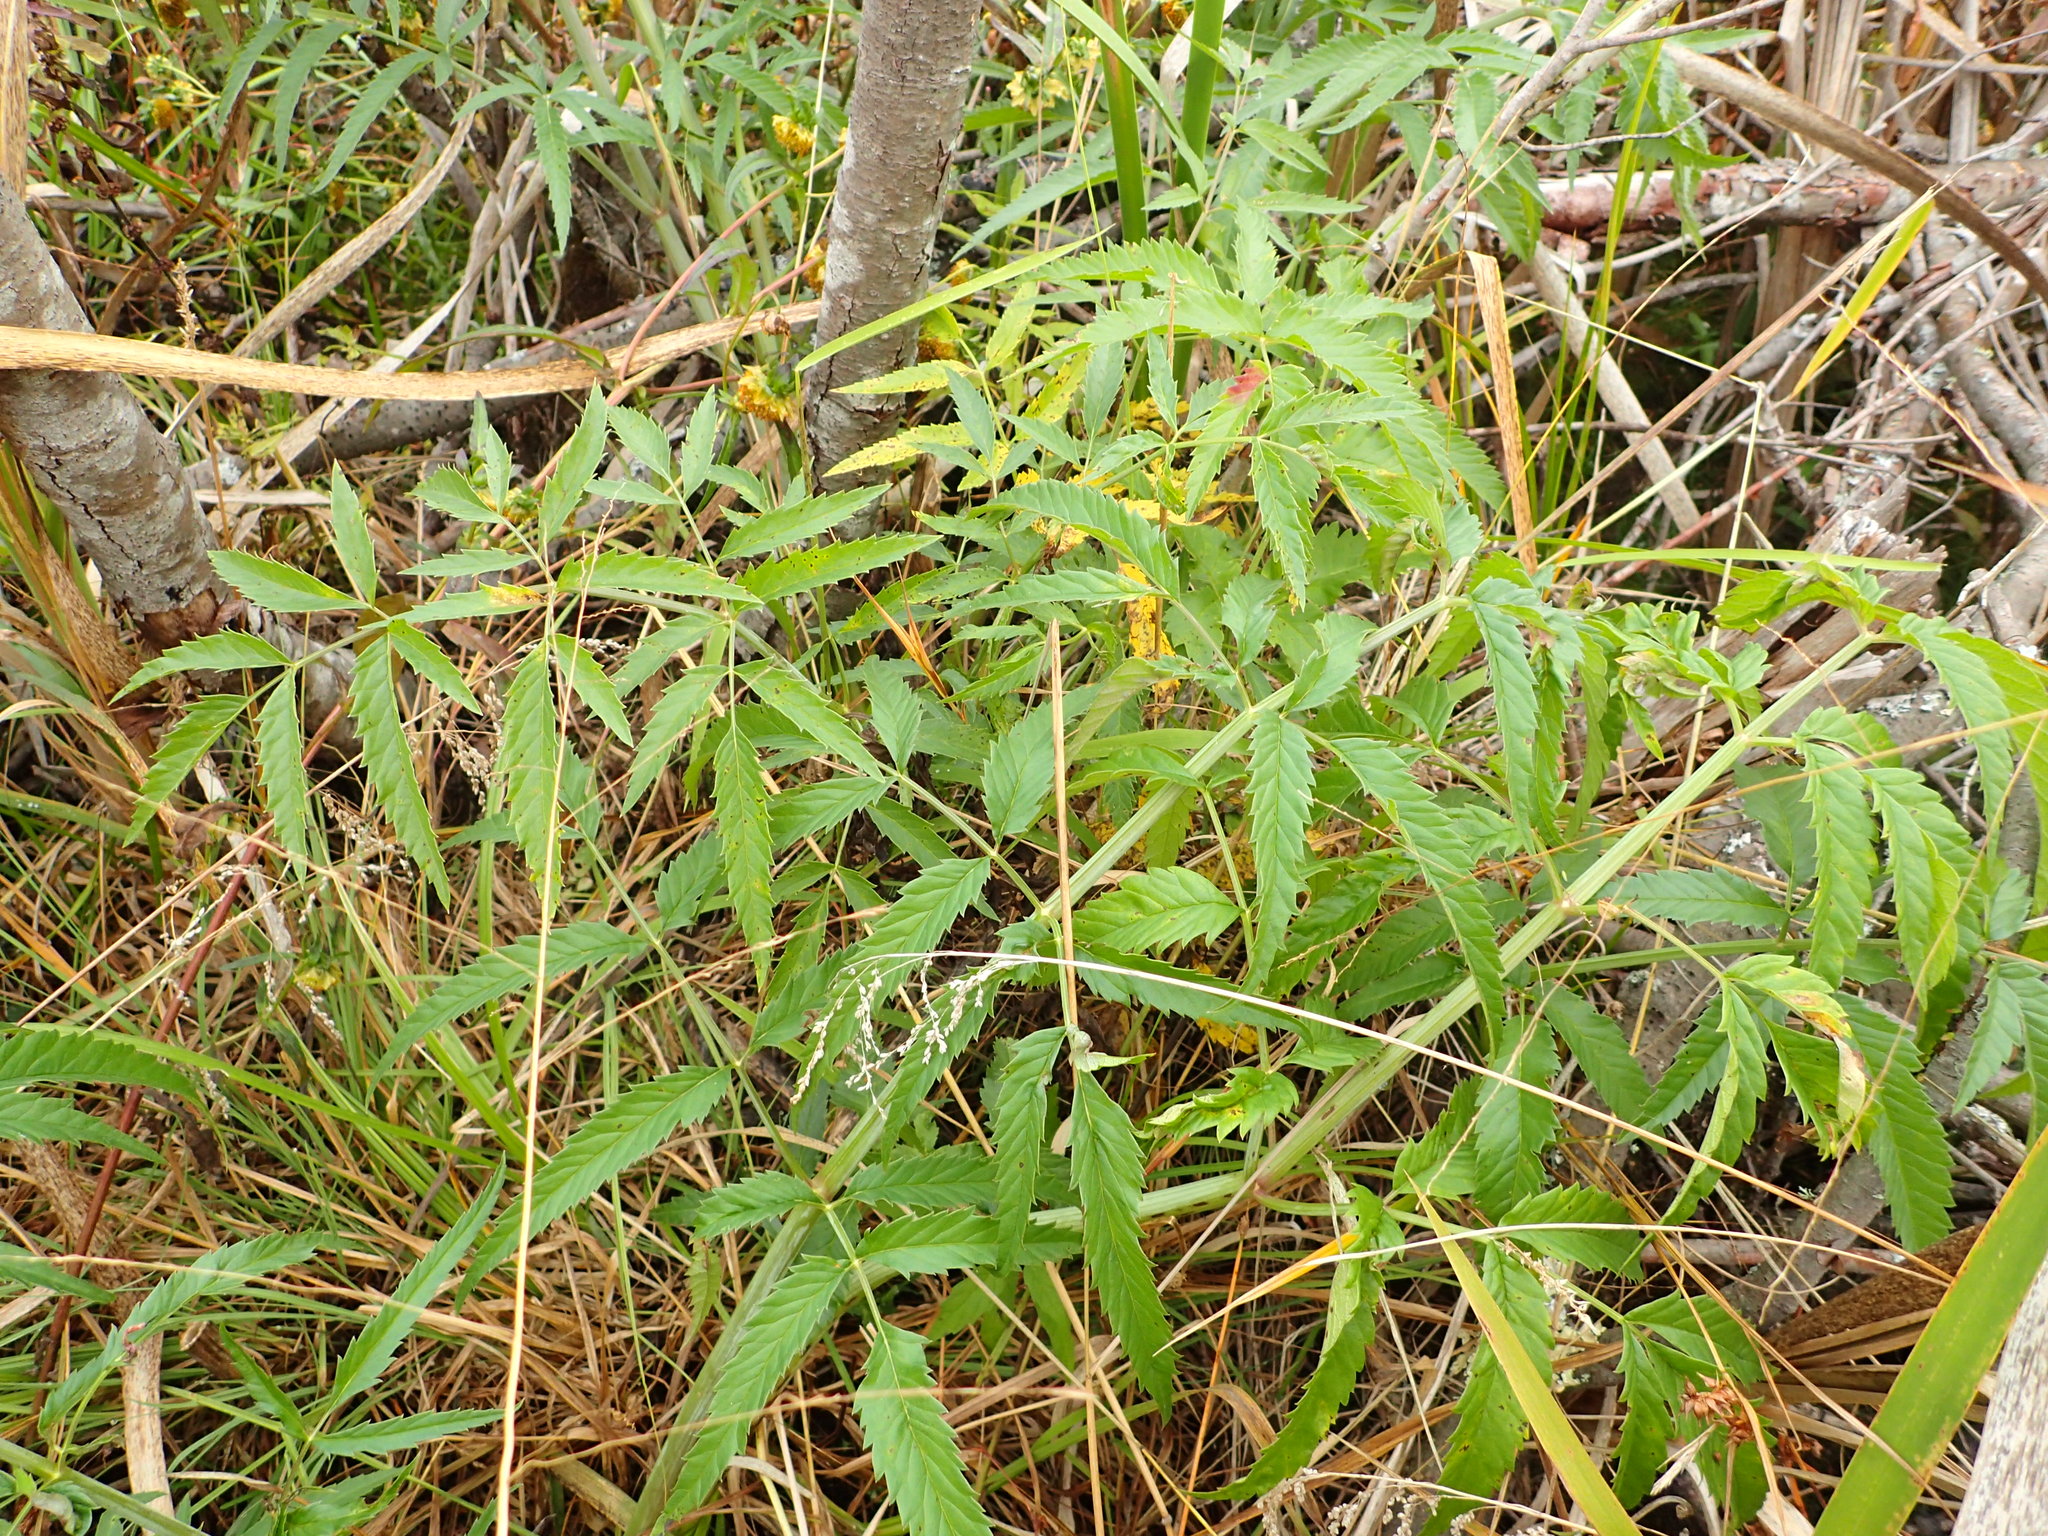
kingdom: Plantae
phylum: Tracheophyta
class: Magnoliopsida
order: Apiales
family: Apiaceae
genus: Cicuta
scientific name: Cicuta maculata
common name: Spotted cowbane
